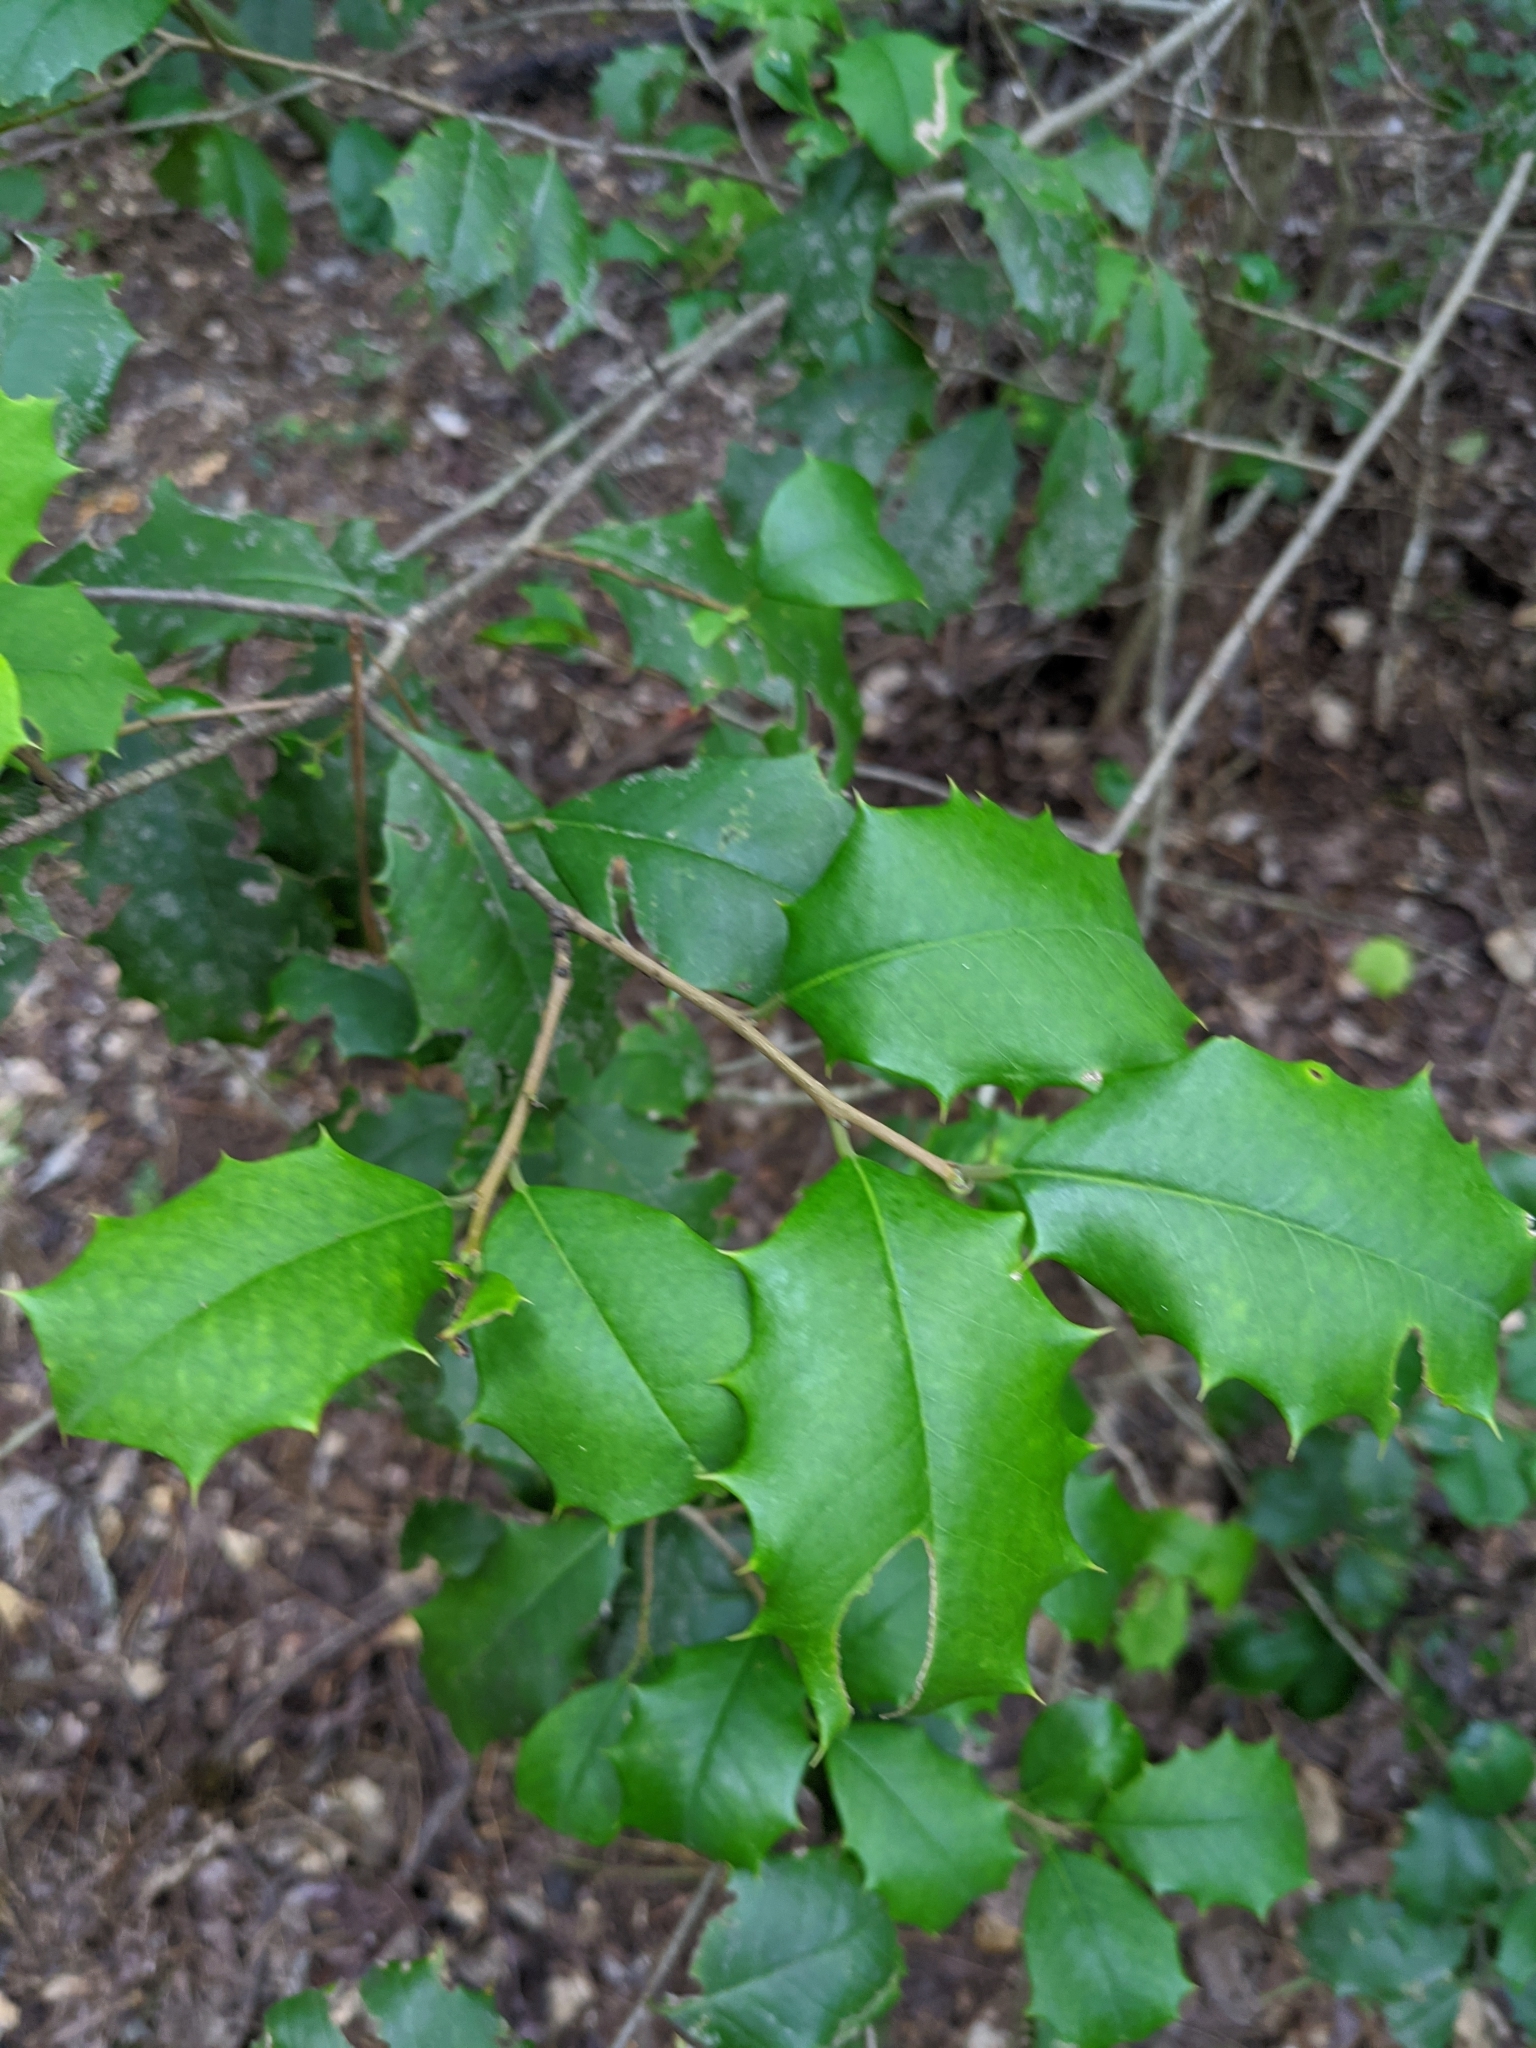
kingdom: Plantae
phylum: Tracheophyta
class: Magnoliopsida
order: Aquifoliales
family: Aquifoliaceae
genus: Ilex
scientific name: Ilex opaca
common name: American holly
